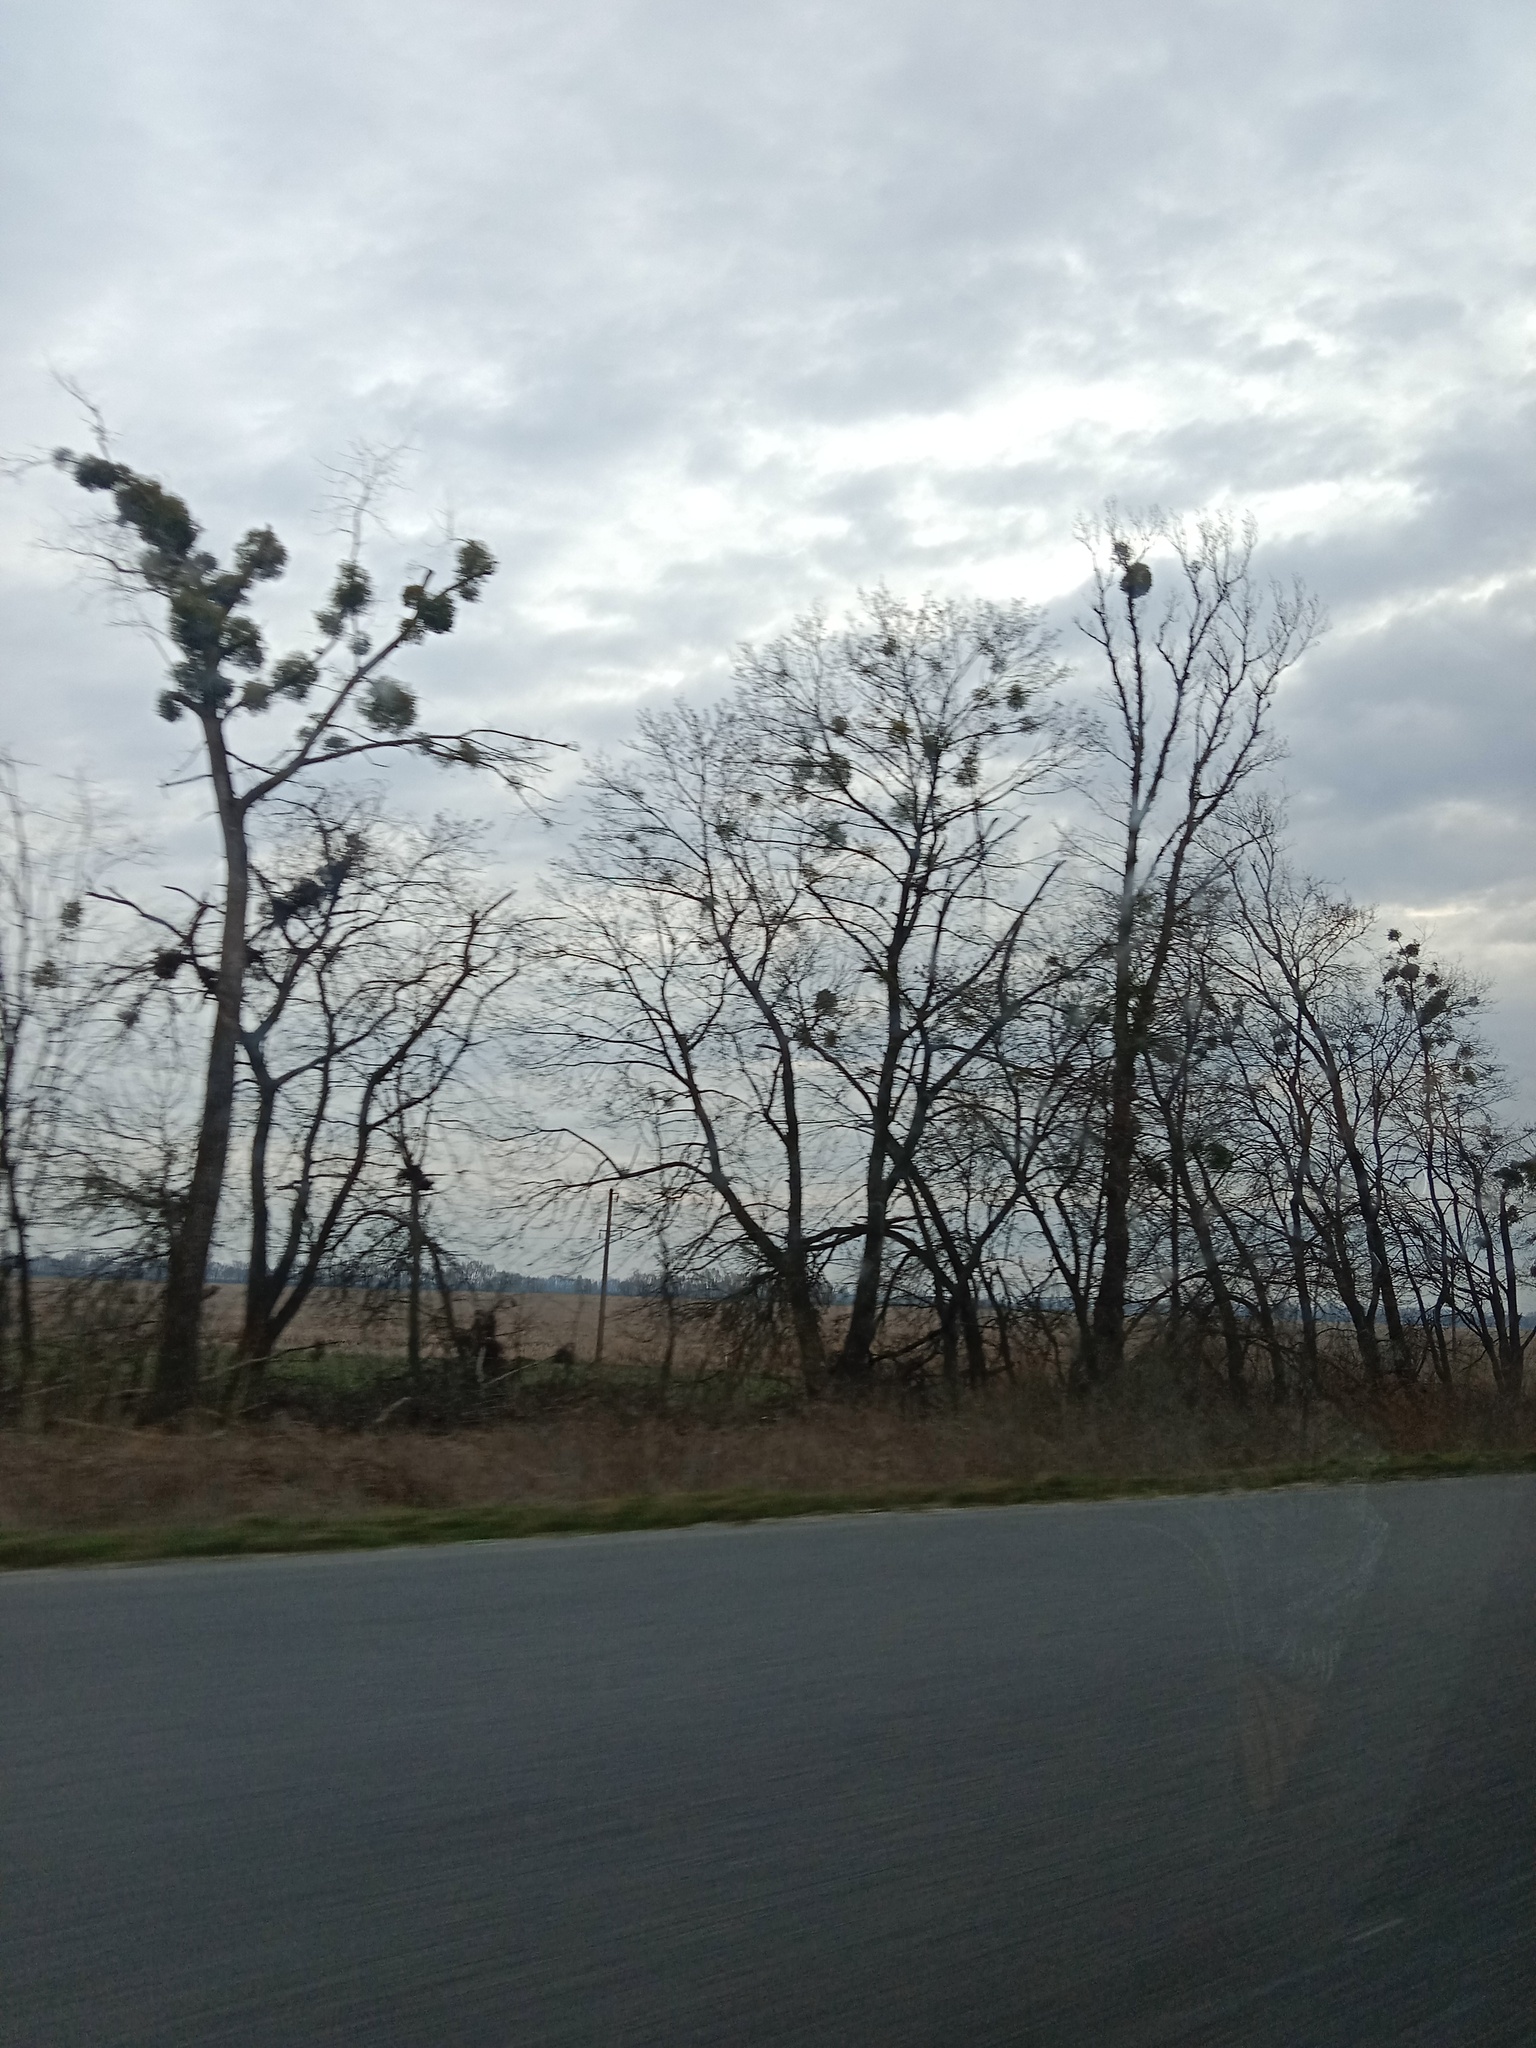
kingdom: Plantae
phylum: Tracheophyta
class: Magnoliopsida
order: Santalales
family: Viscaceae
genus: Viscum
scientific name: Viscum album
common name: Mistletoe
